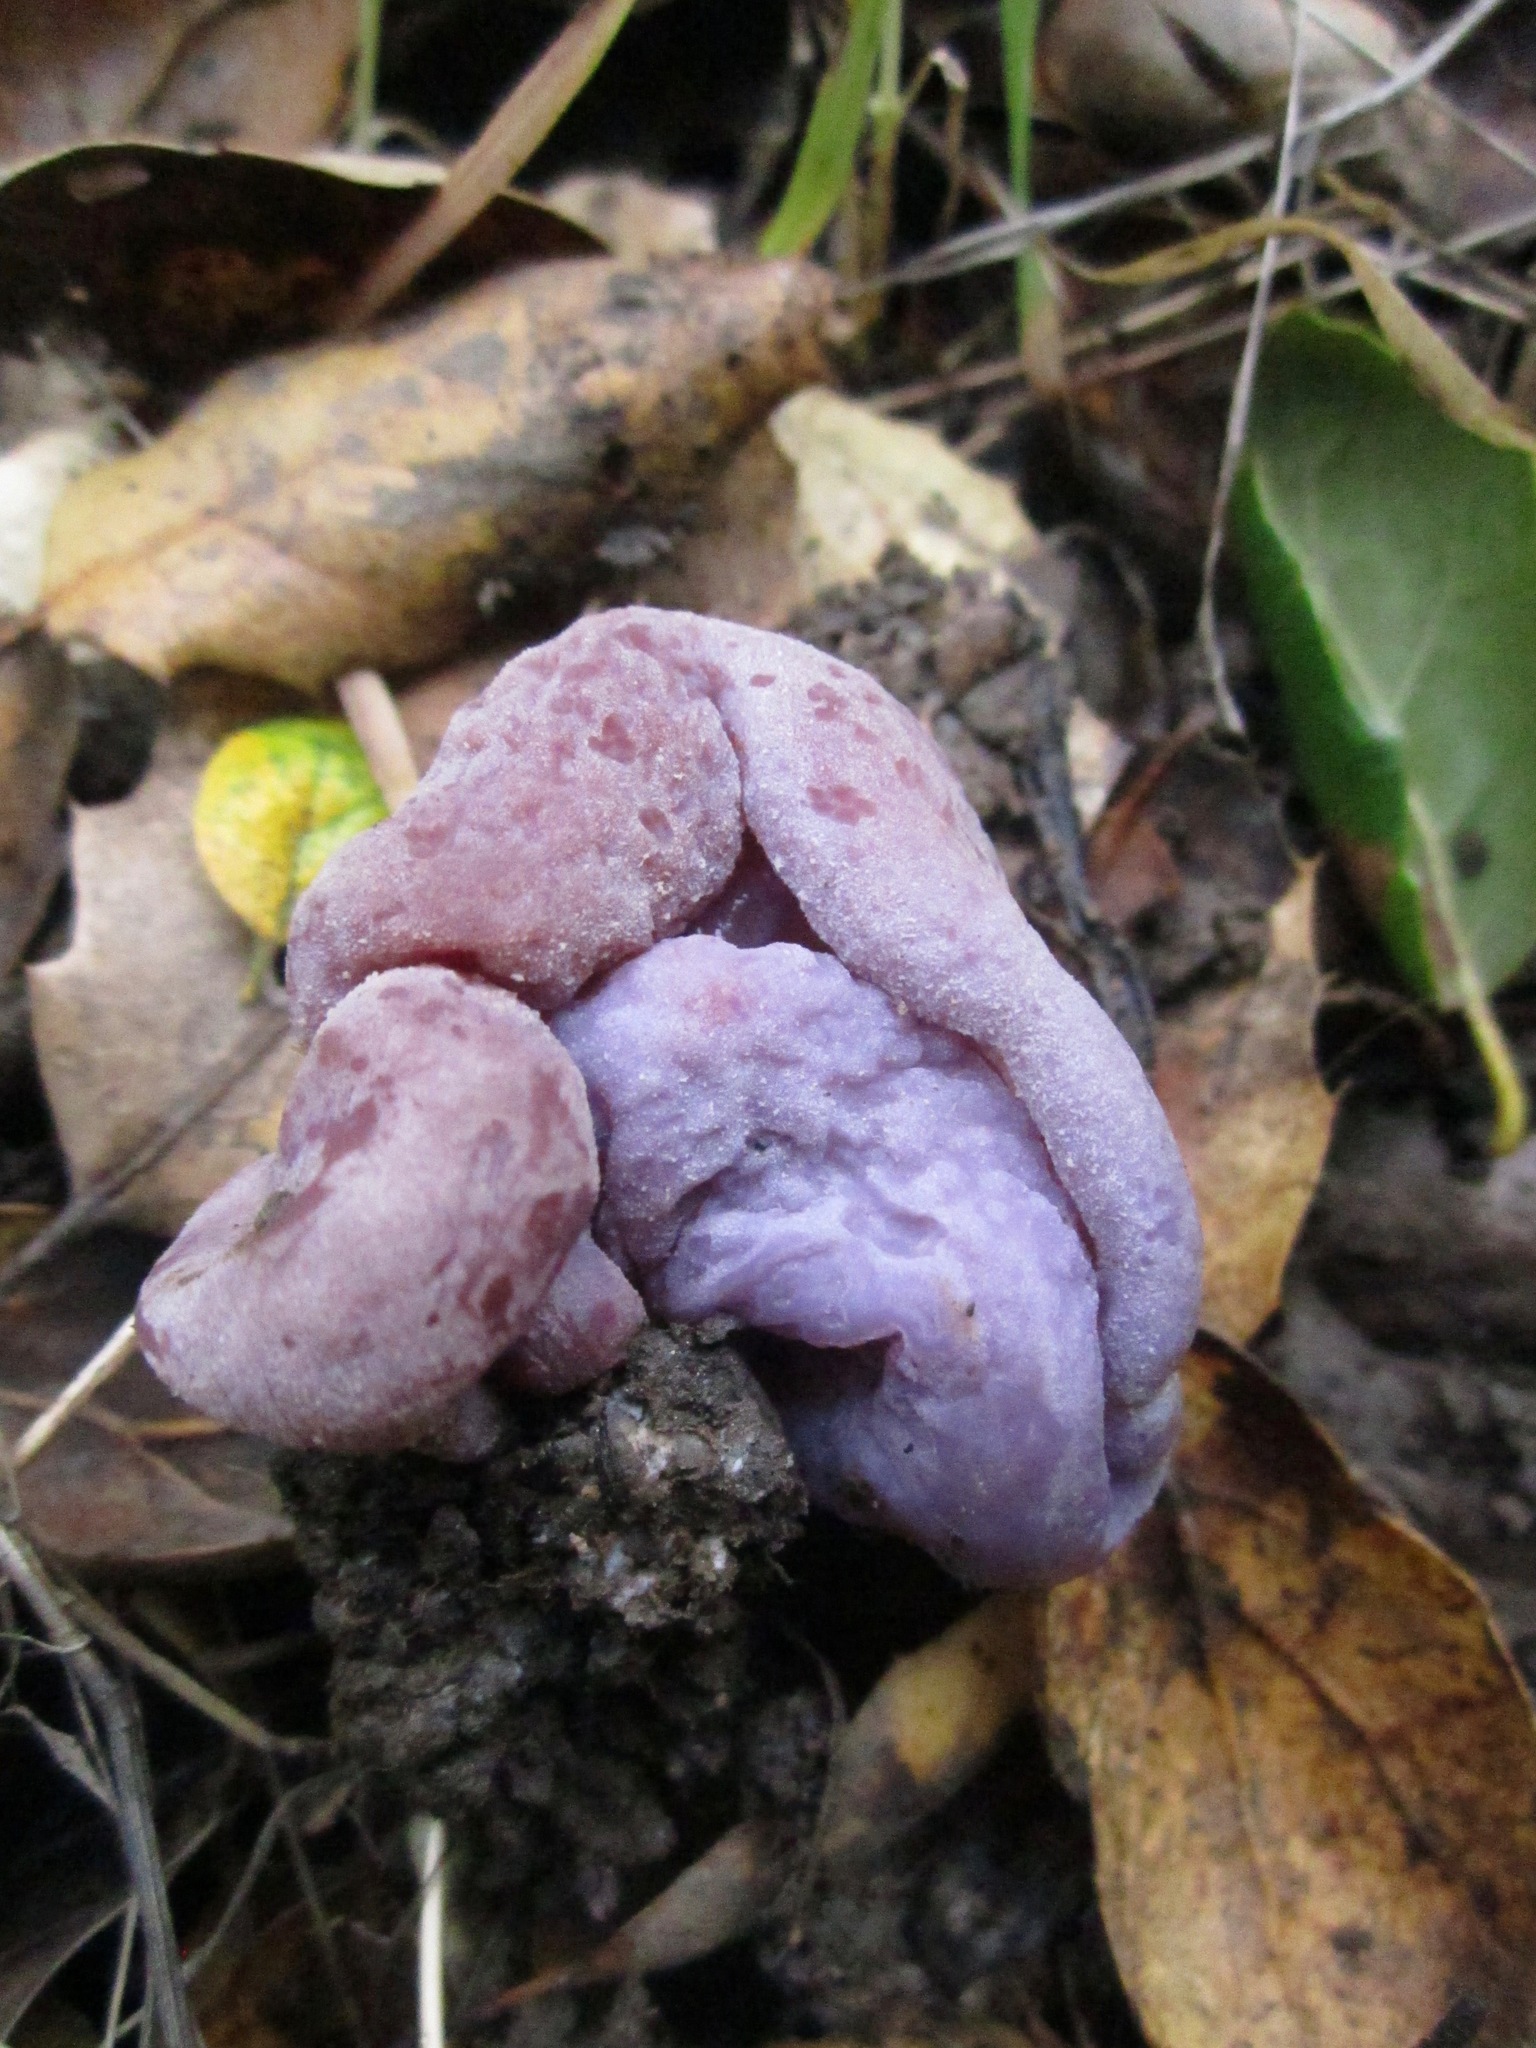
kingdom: Fungi
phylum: Ascomycota
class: Pezizomycetes
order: Pezizales
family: Pezizaceae
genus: Peziza
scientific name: Peziza ellipsospora
